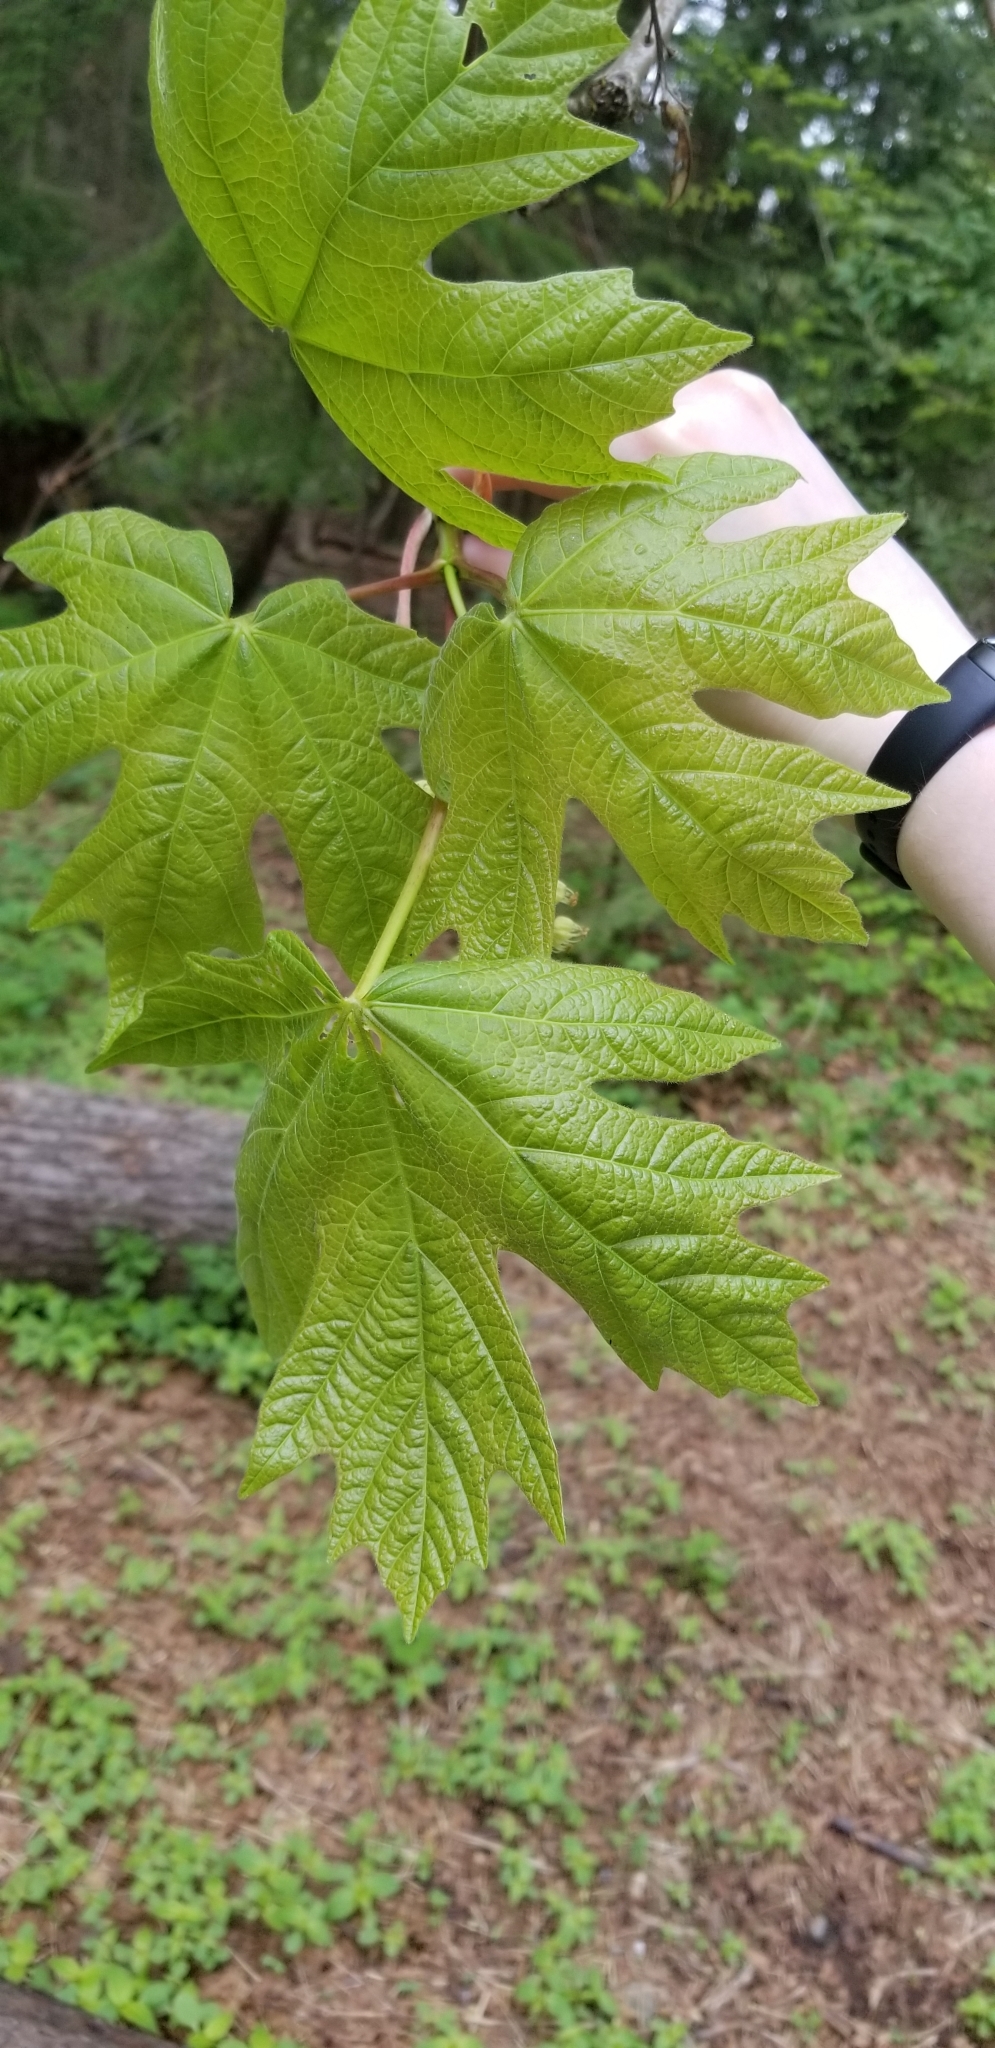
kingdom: Plantae
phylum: Tracheophyta
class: Magnoliopsida
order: Sapindales
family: Sapindaceae
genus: Acer
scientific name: Acer macrophyllum
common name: Oregon maple
